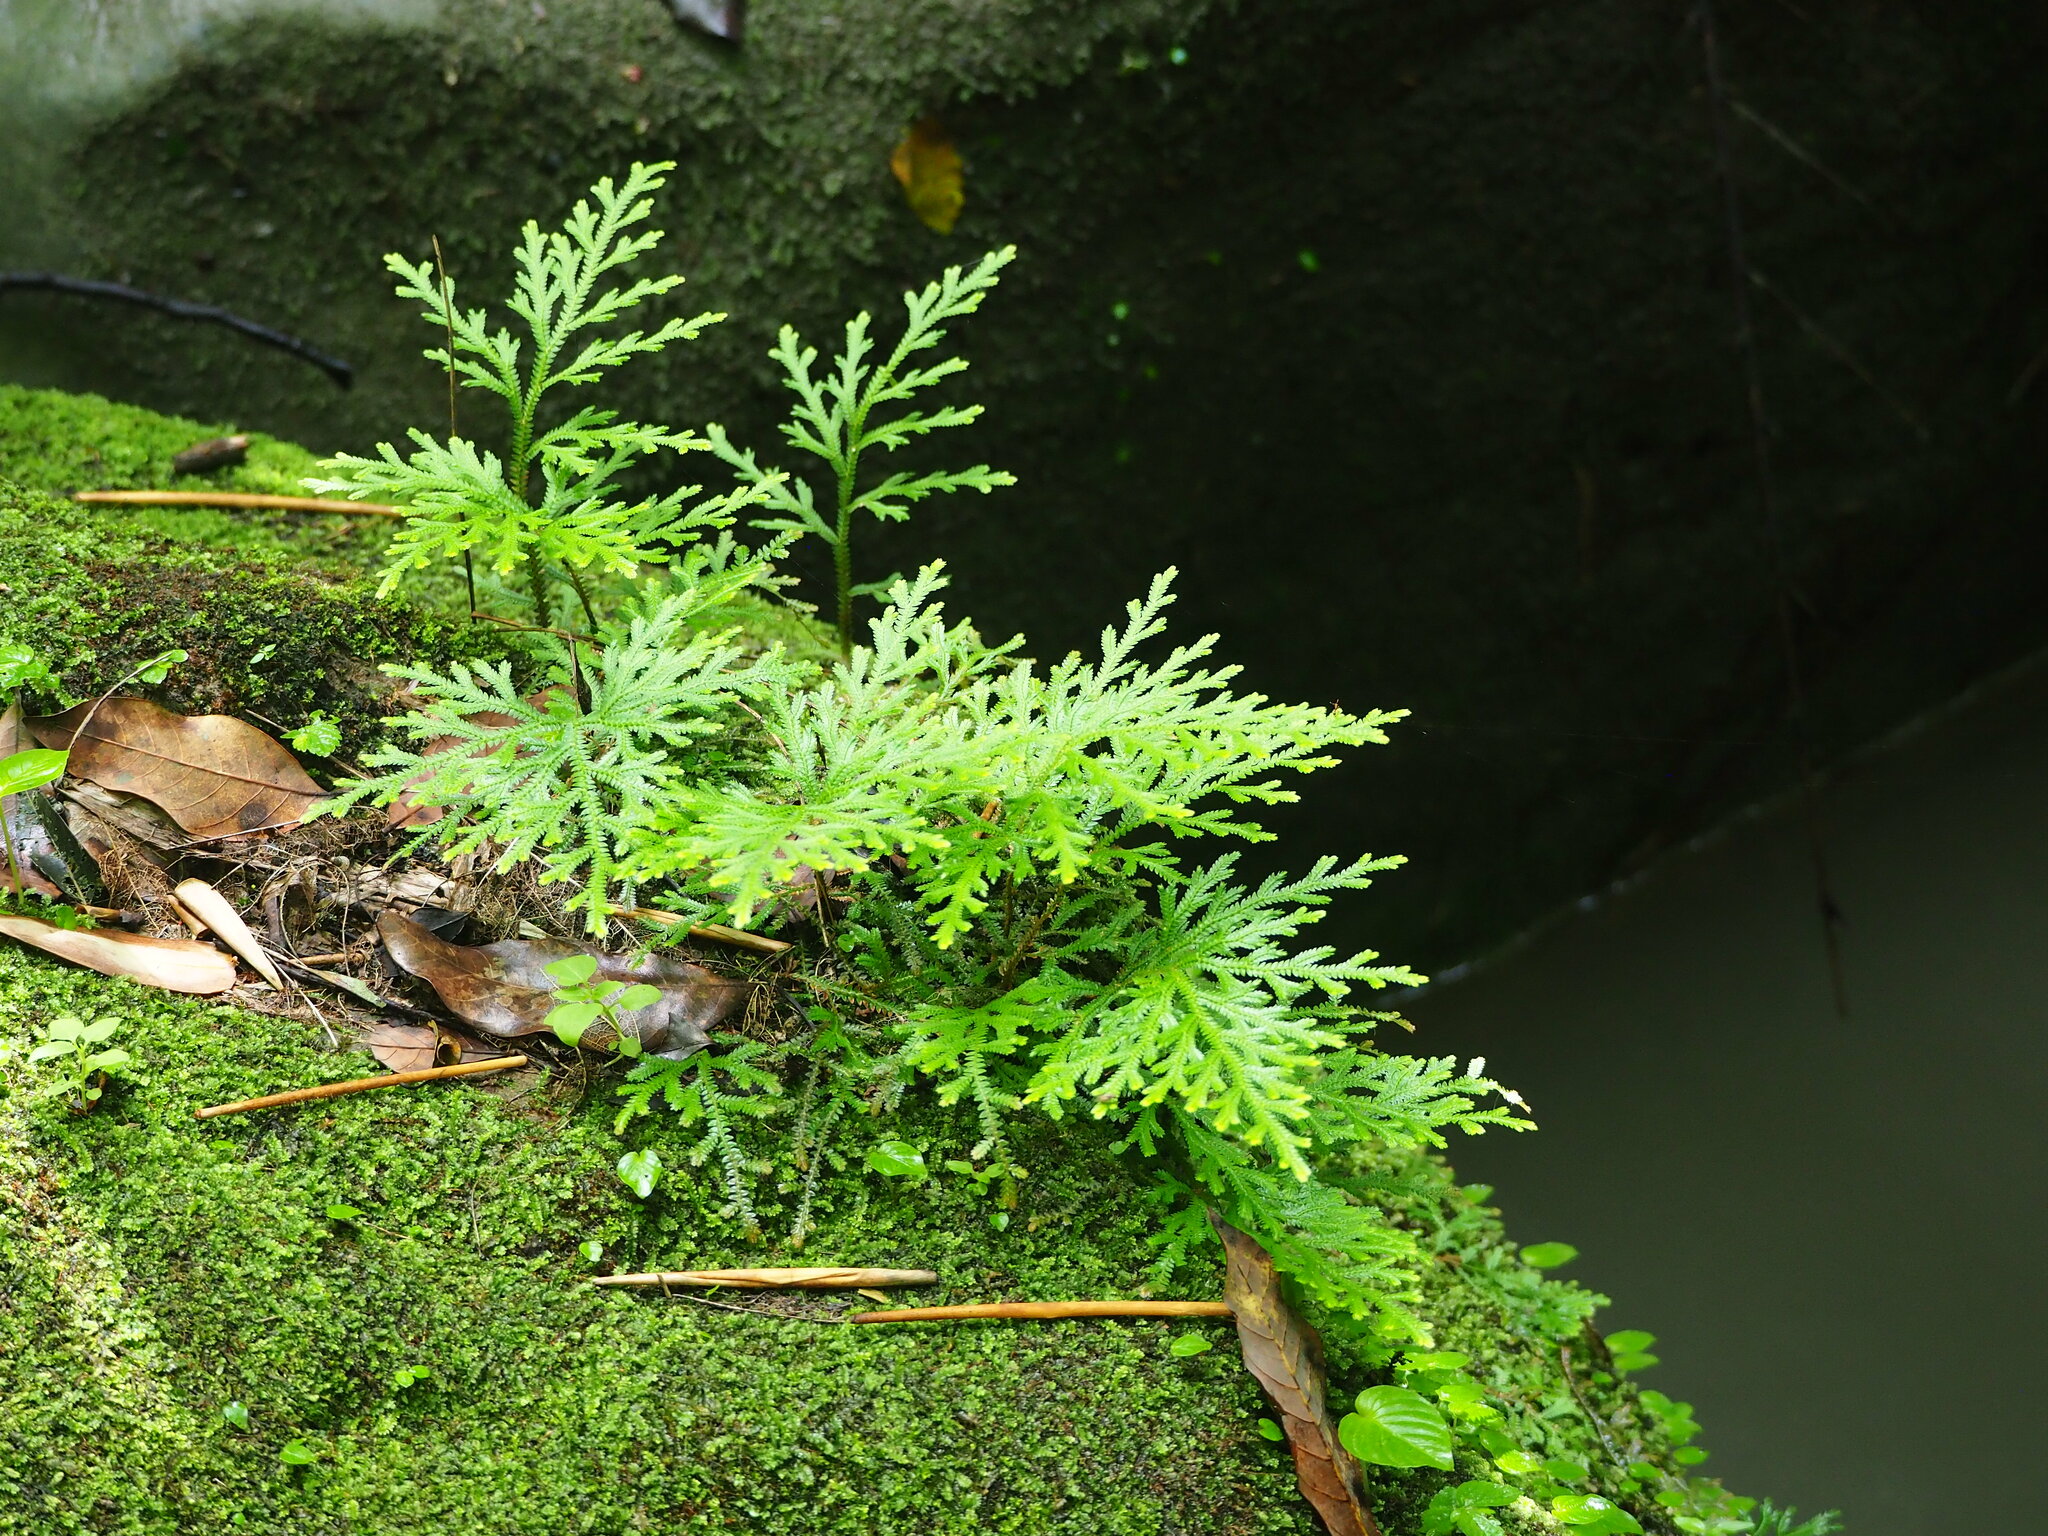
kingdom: Plantae
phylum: Tracheophyta
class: Lycopodiopsida
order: Selaginellales
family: Selaginellaceae
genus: Selaginella
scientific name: Selaginella repanda
